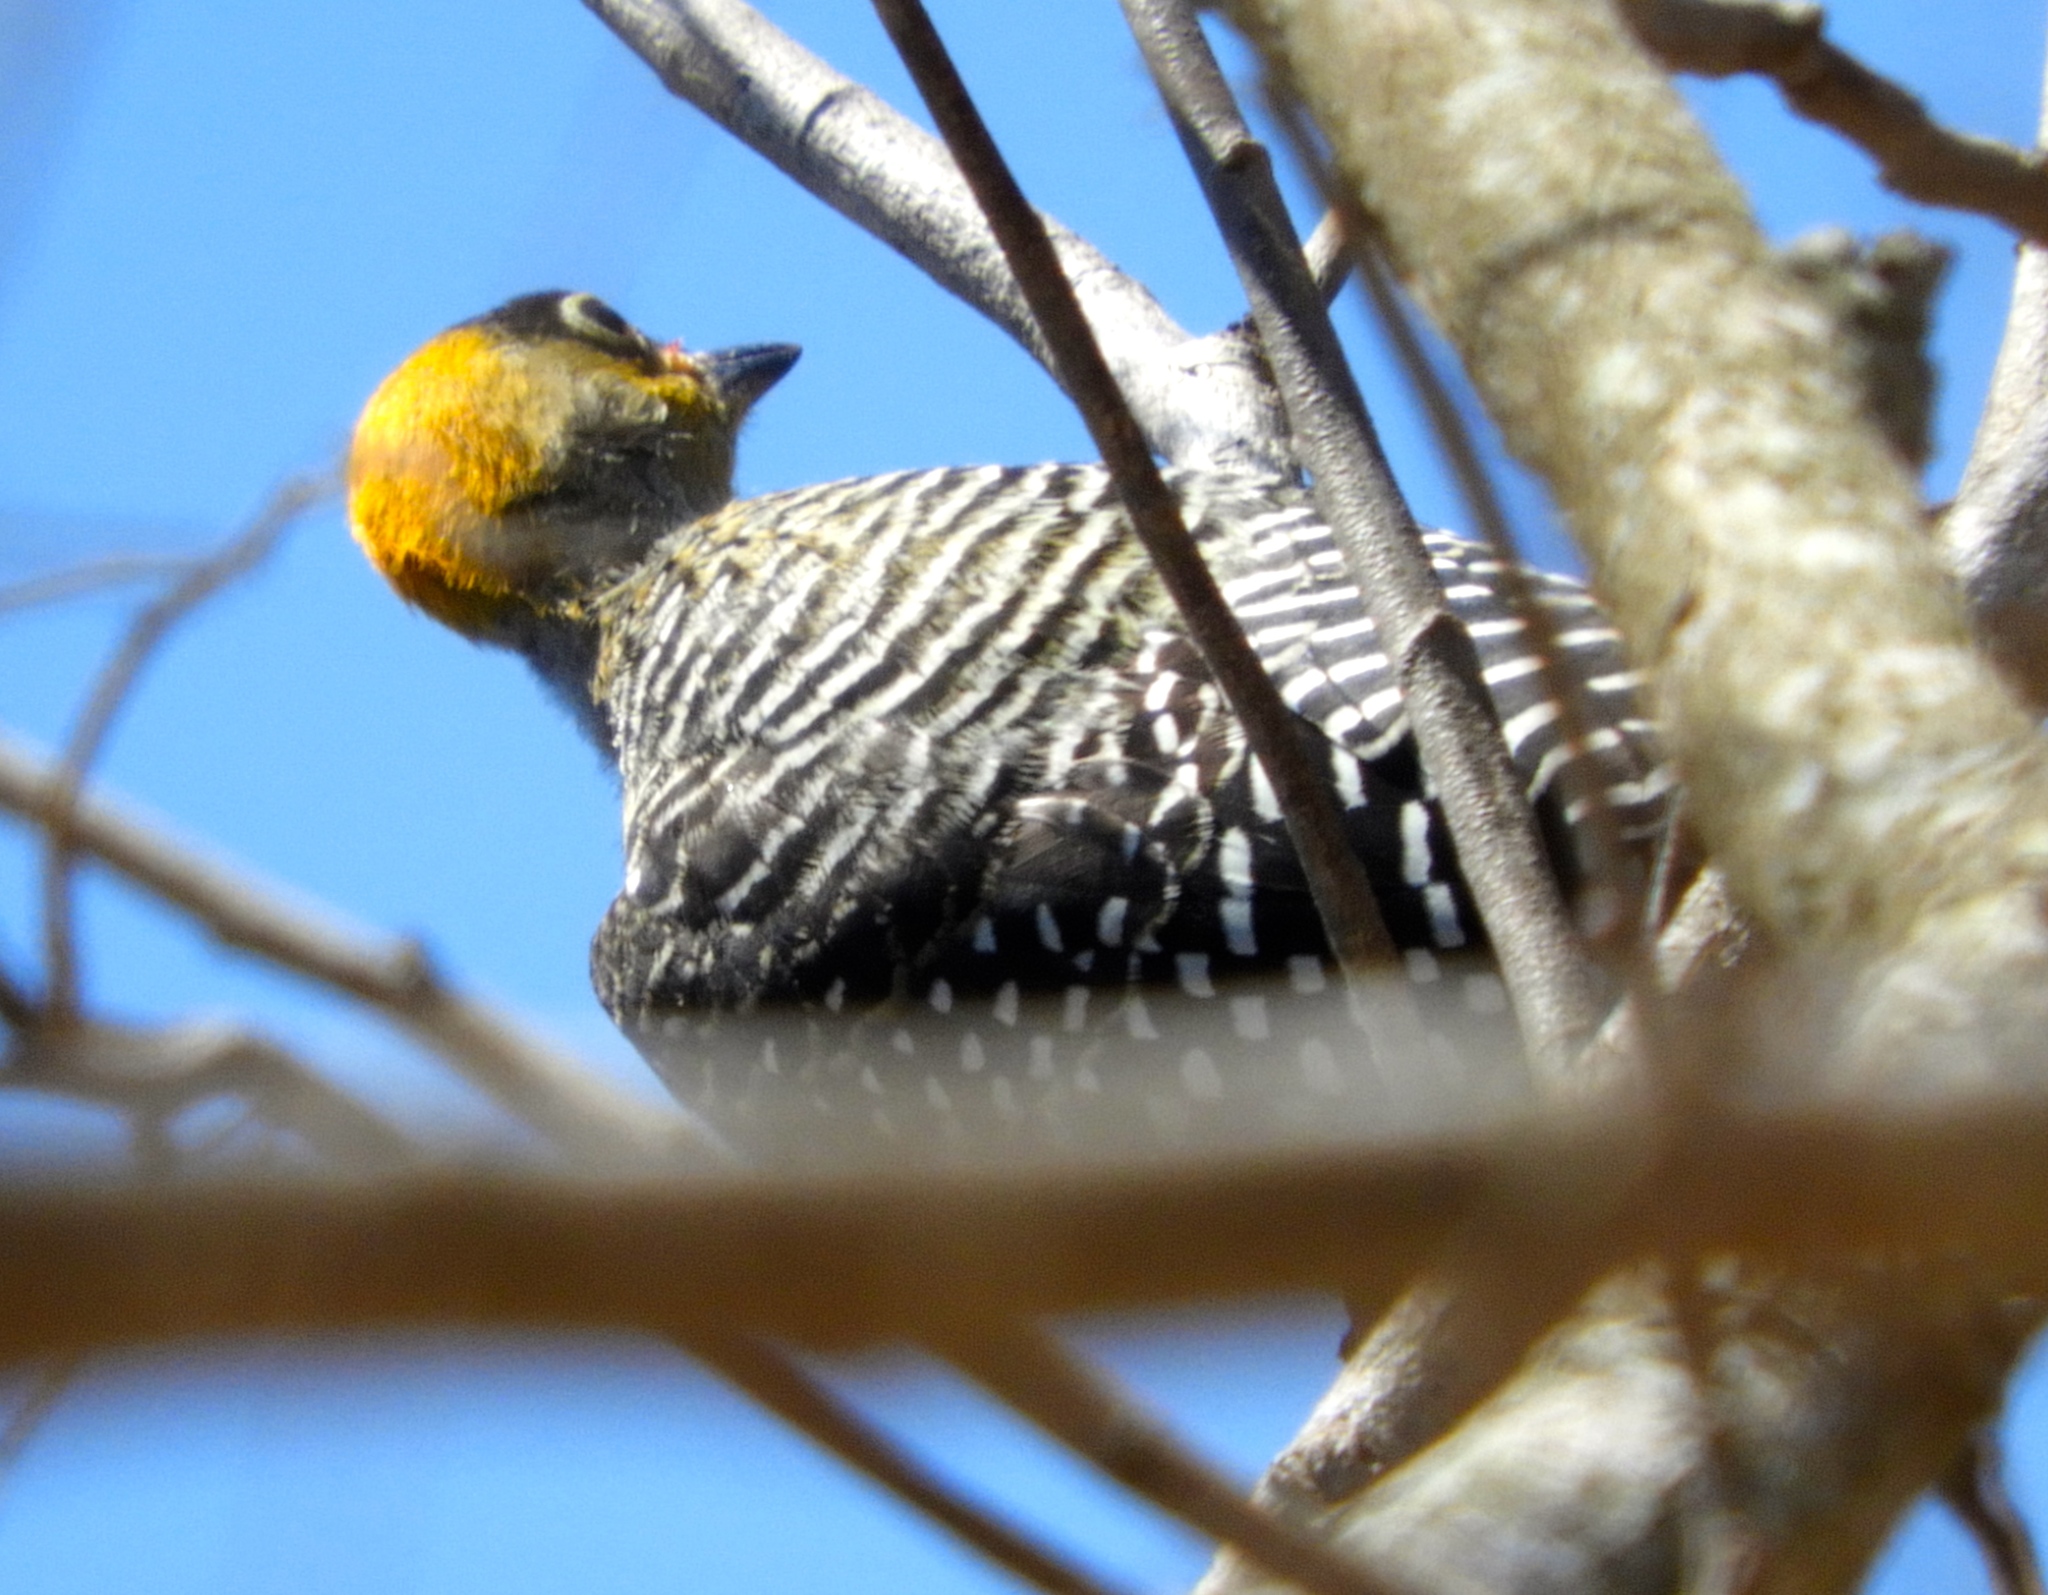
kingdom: Animalia
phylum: Chordata
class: Aves
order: Piciformes
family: Picidae
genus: Melanerpes
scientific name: Melanerpes chrysogenys
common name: Golden-cheeked woodpecker
